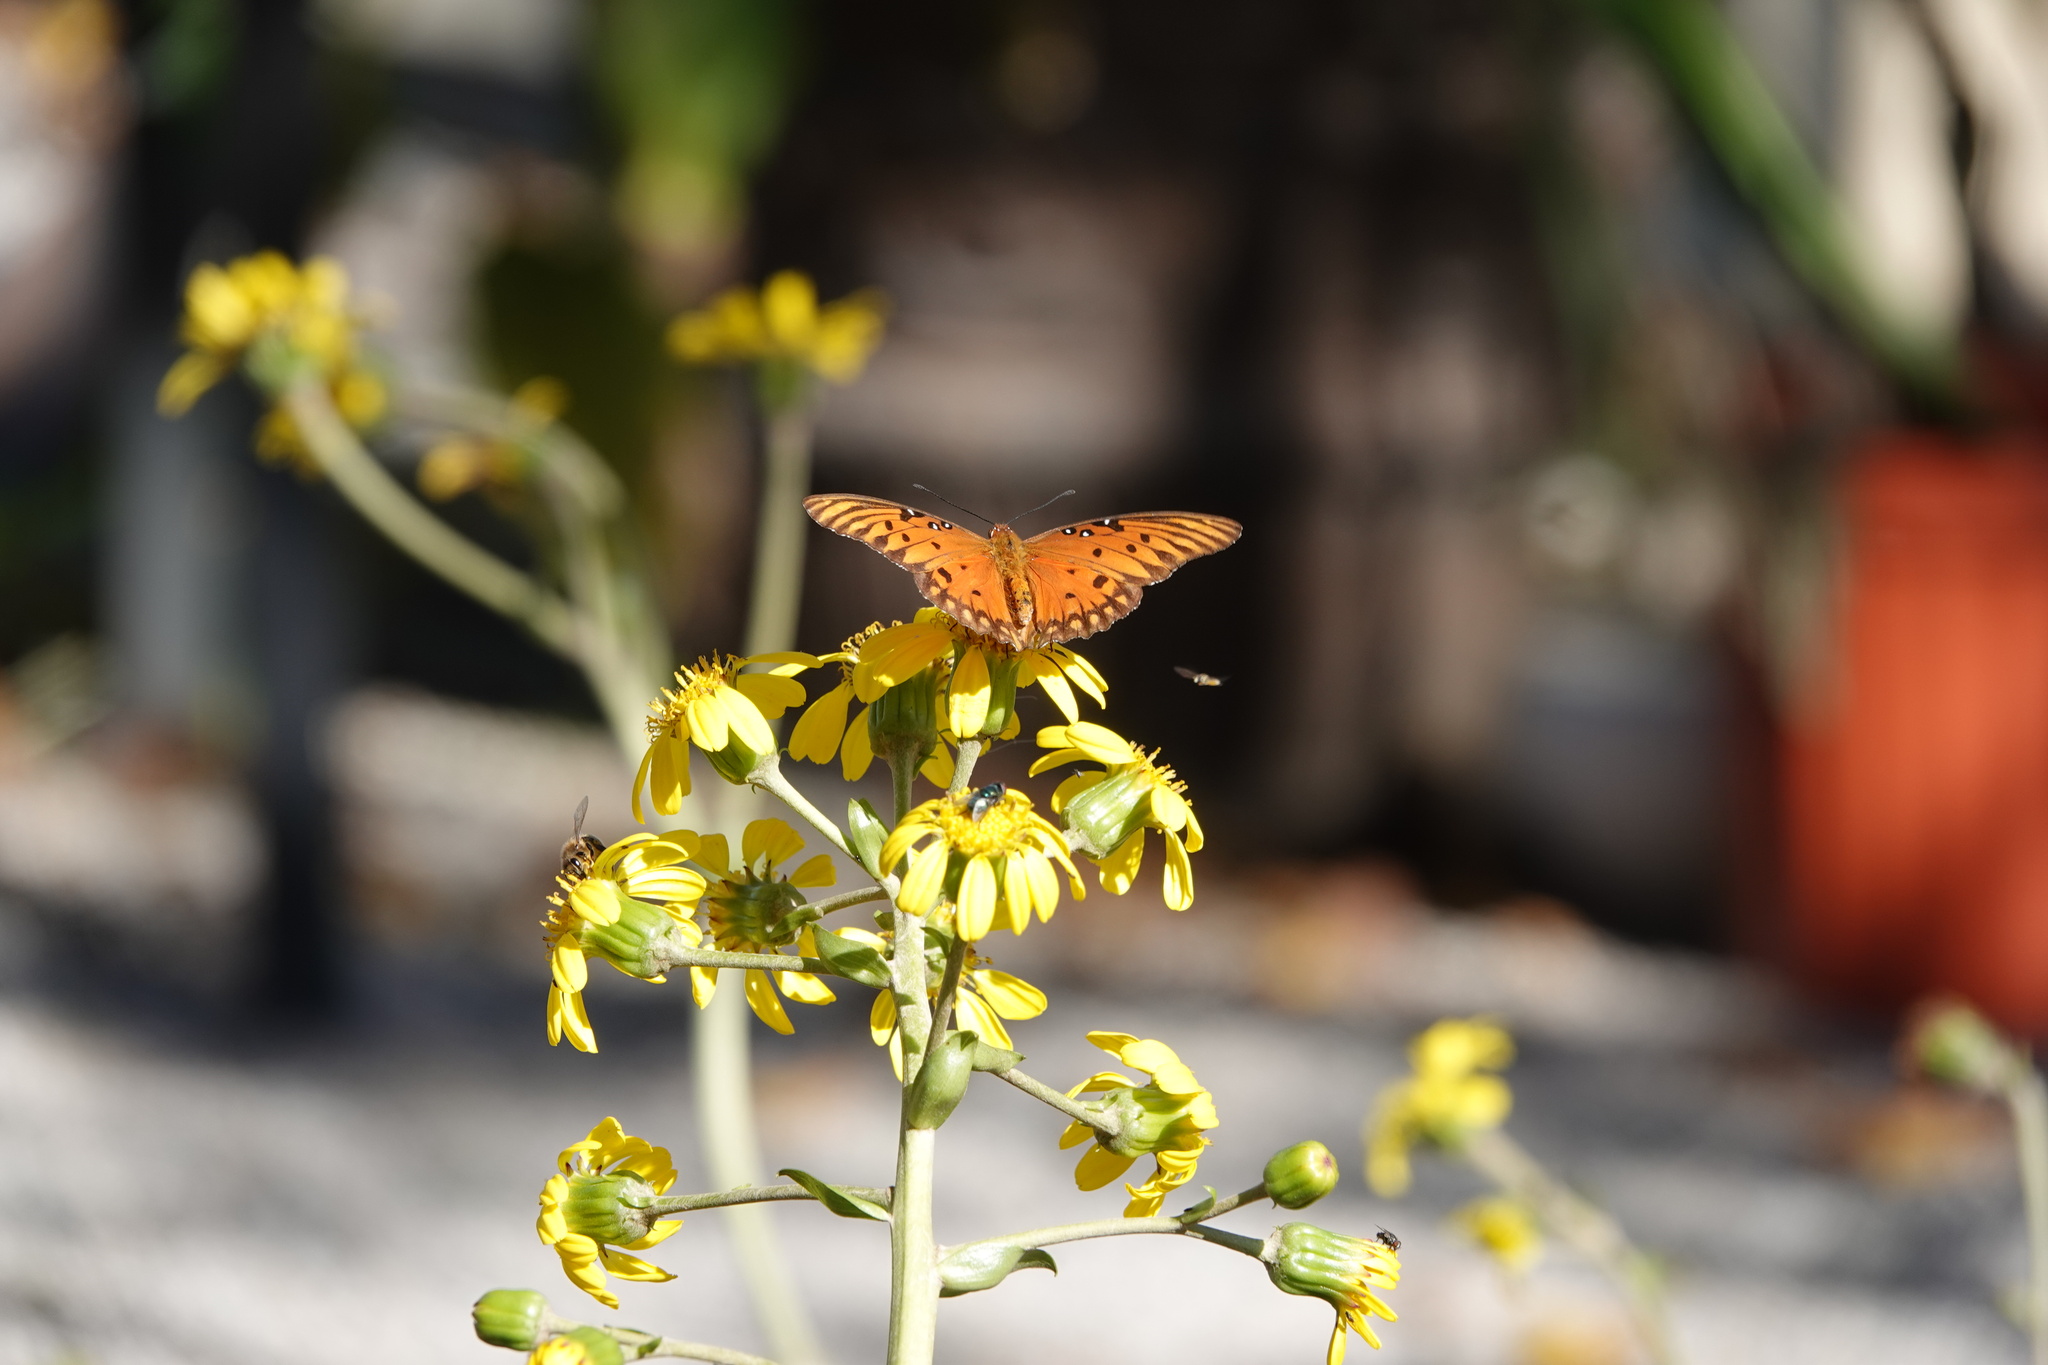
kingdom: Animalia
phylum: Arthropoda
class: Insecta
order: Lepidoptera
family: Nymphalidae
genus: Dione
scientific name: Dione vanillae
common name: Gulf fritillary
